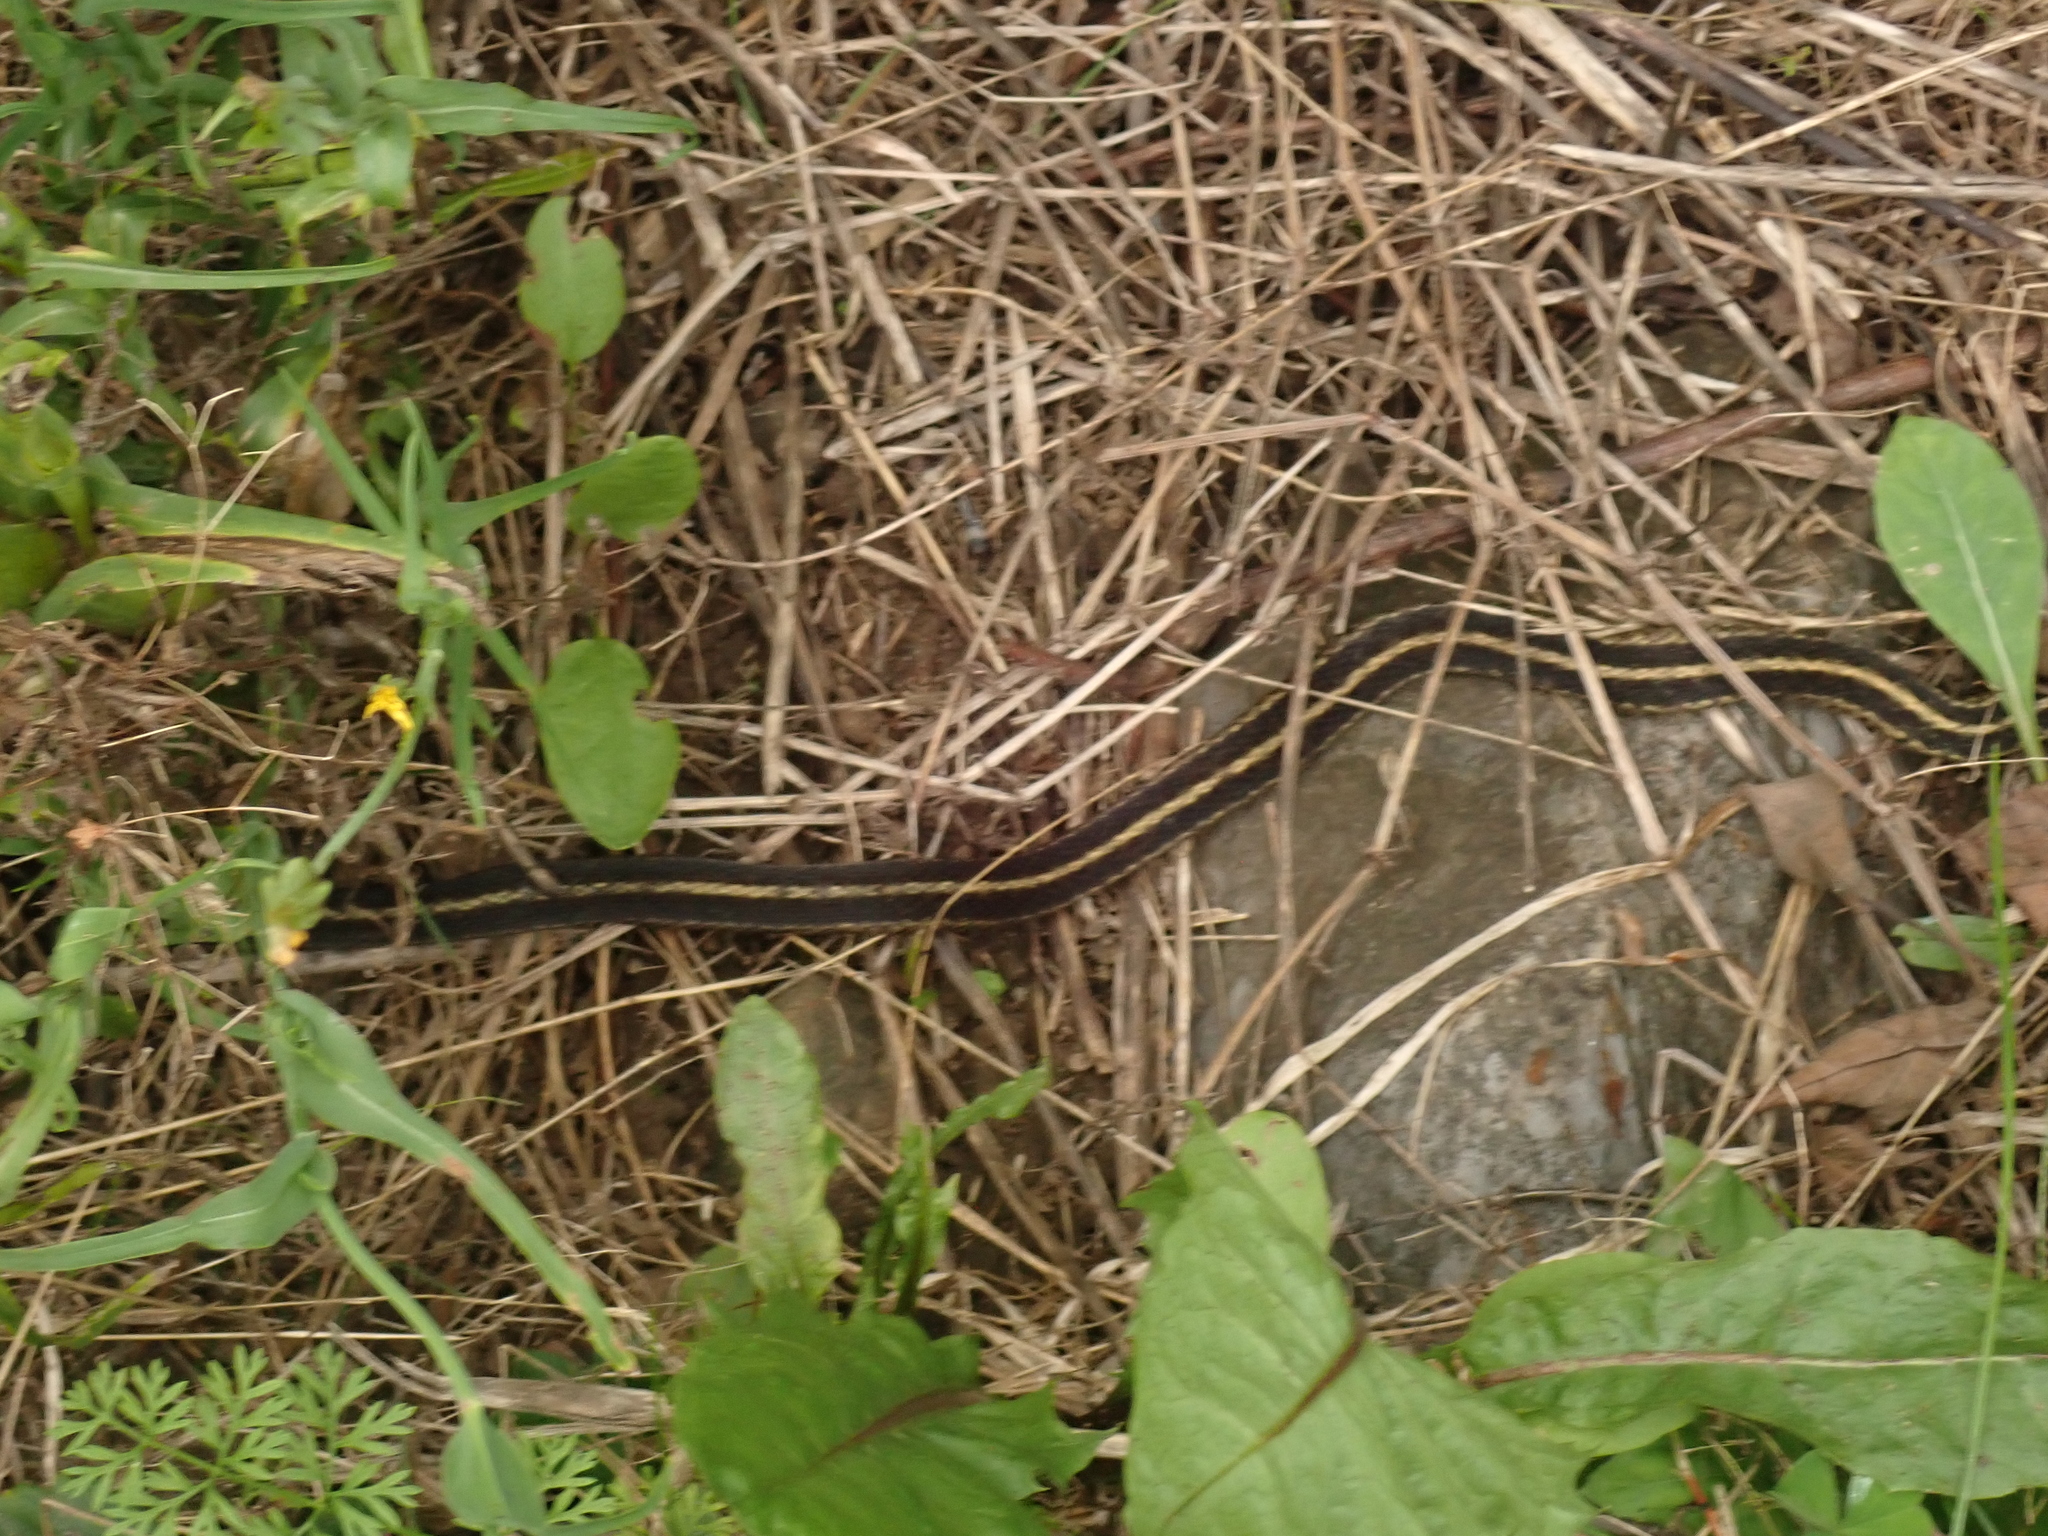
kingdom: Animalia
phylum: Chordata
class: Squamata
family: Colubridae
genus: Thamnophis
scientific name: Thamnophis sirtalis
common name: Common garter snake
